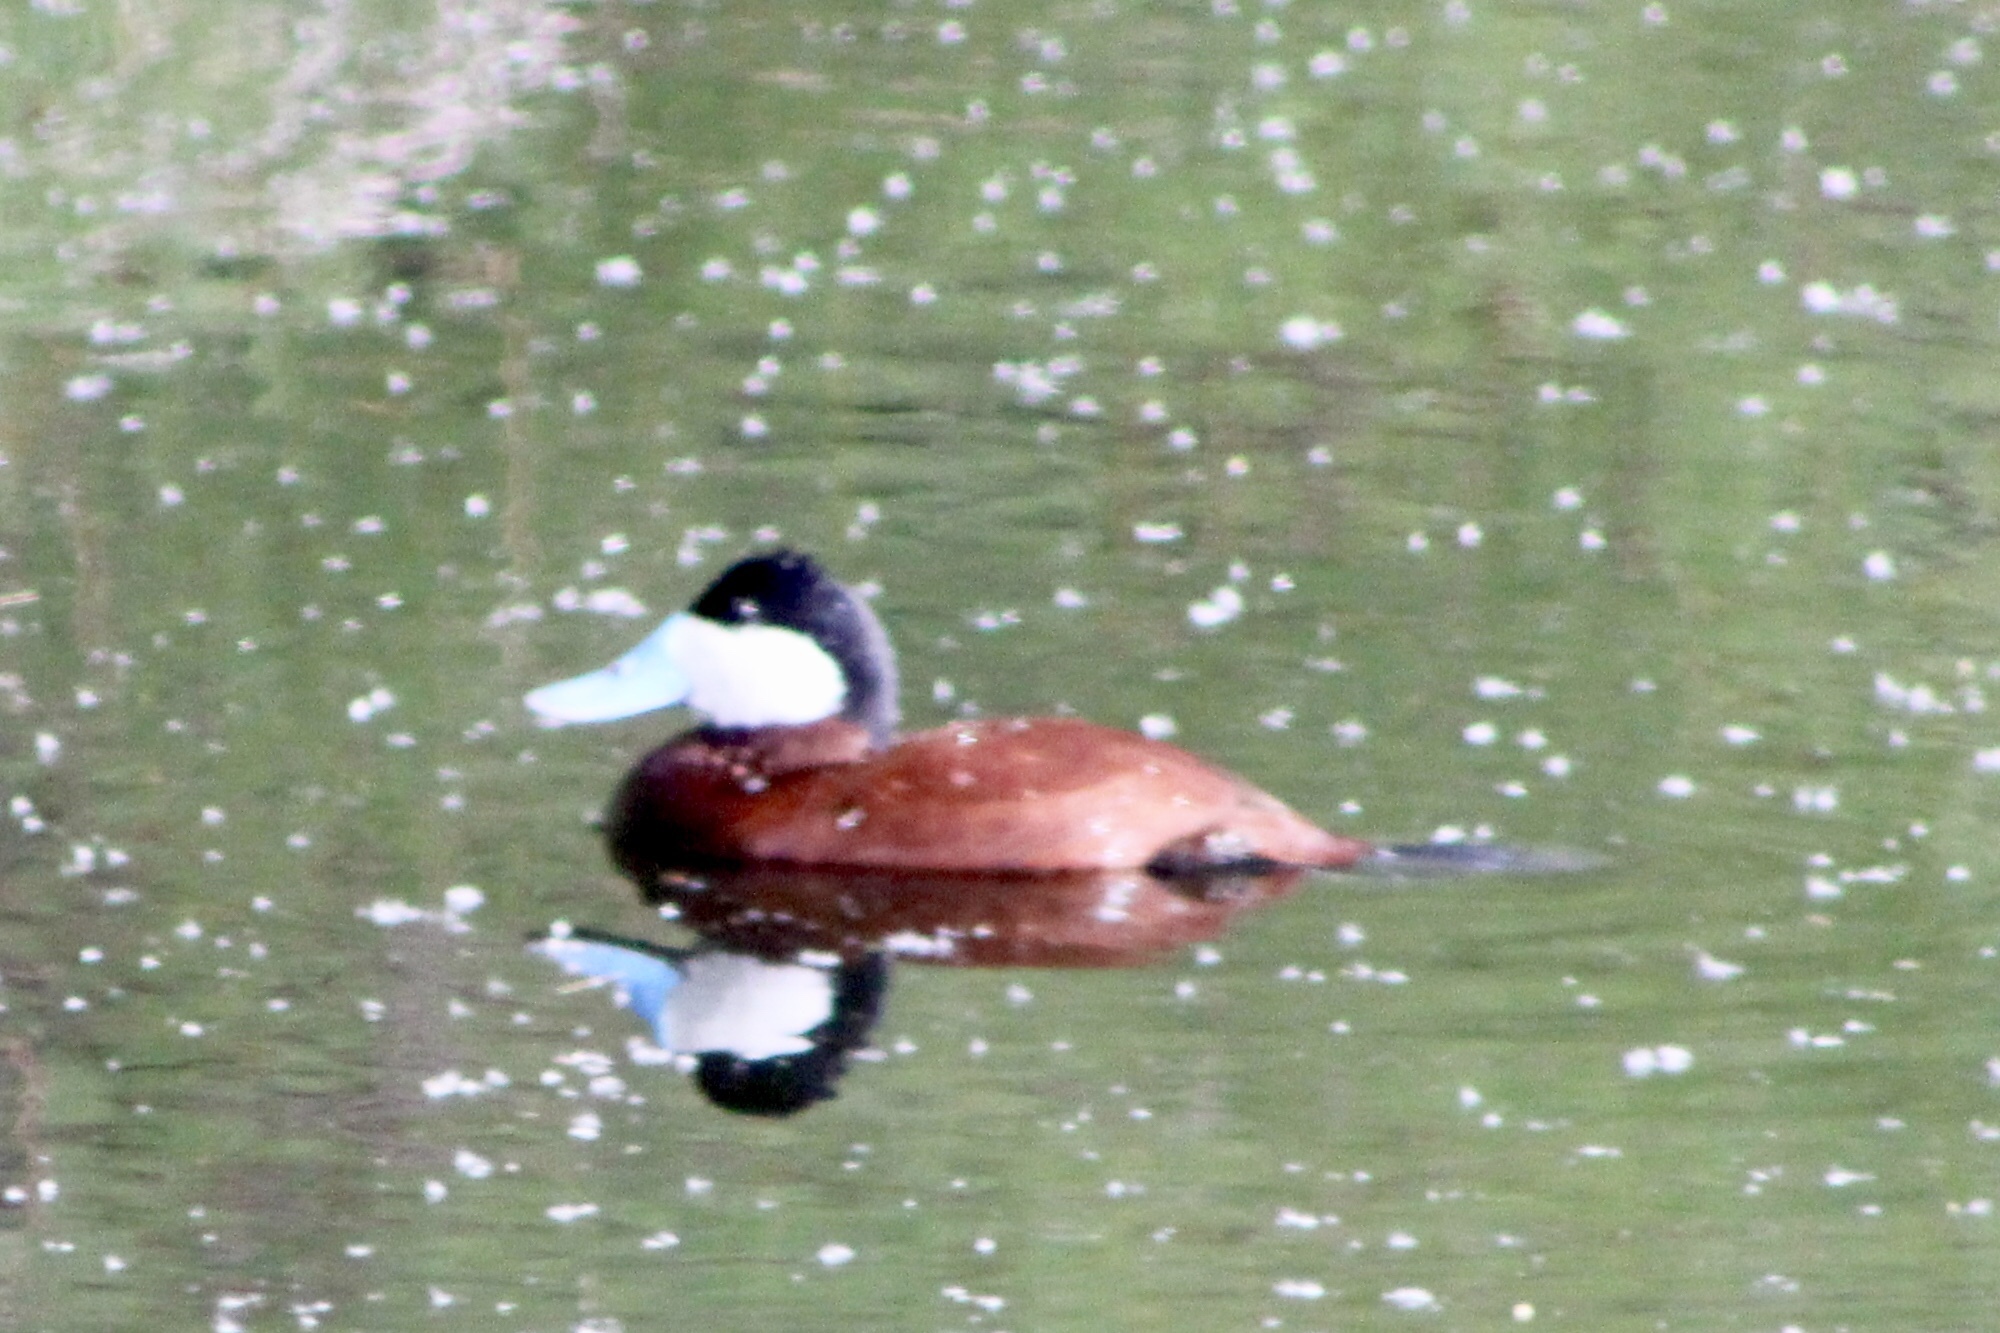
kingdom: Animalia
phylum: Chordata
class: Aves
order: Anseriformes
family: Anatidae
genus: Oxyura
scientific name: Oxyura jamaicensis
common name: Ruddy duck
